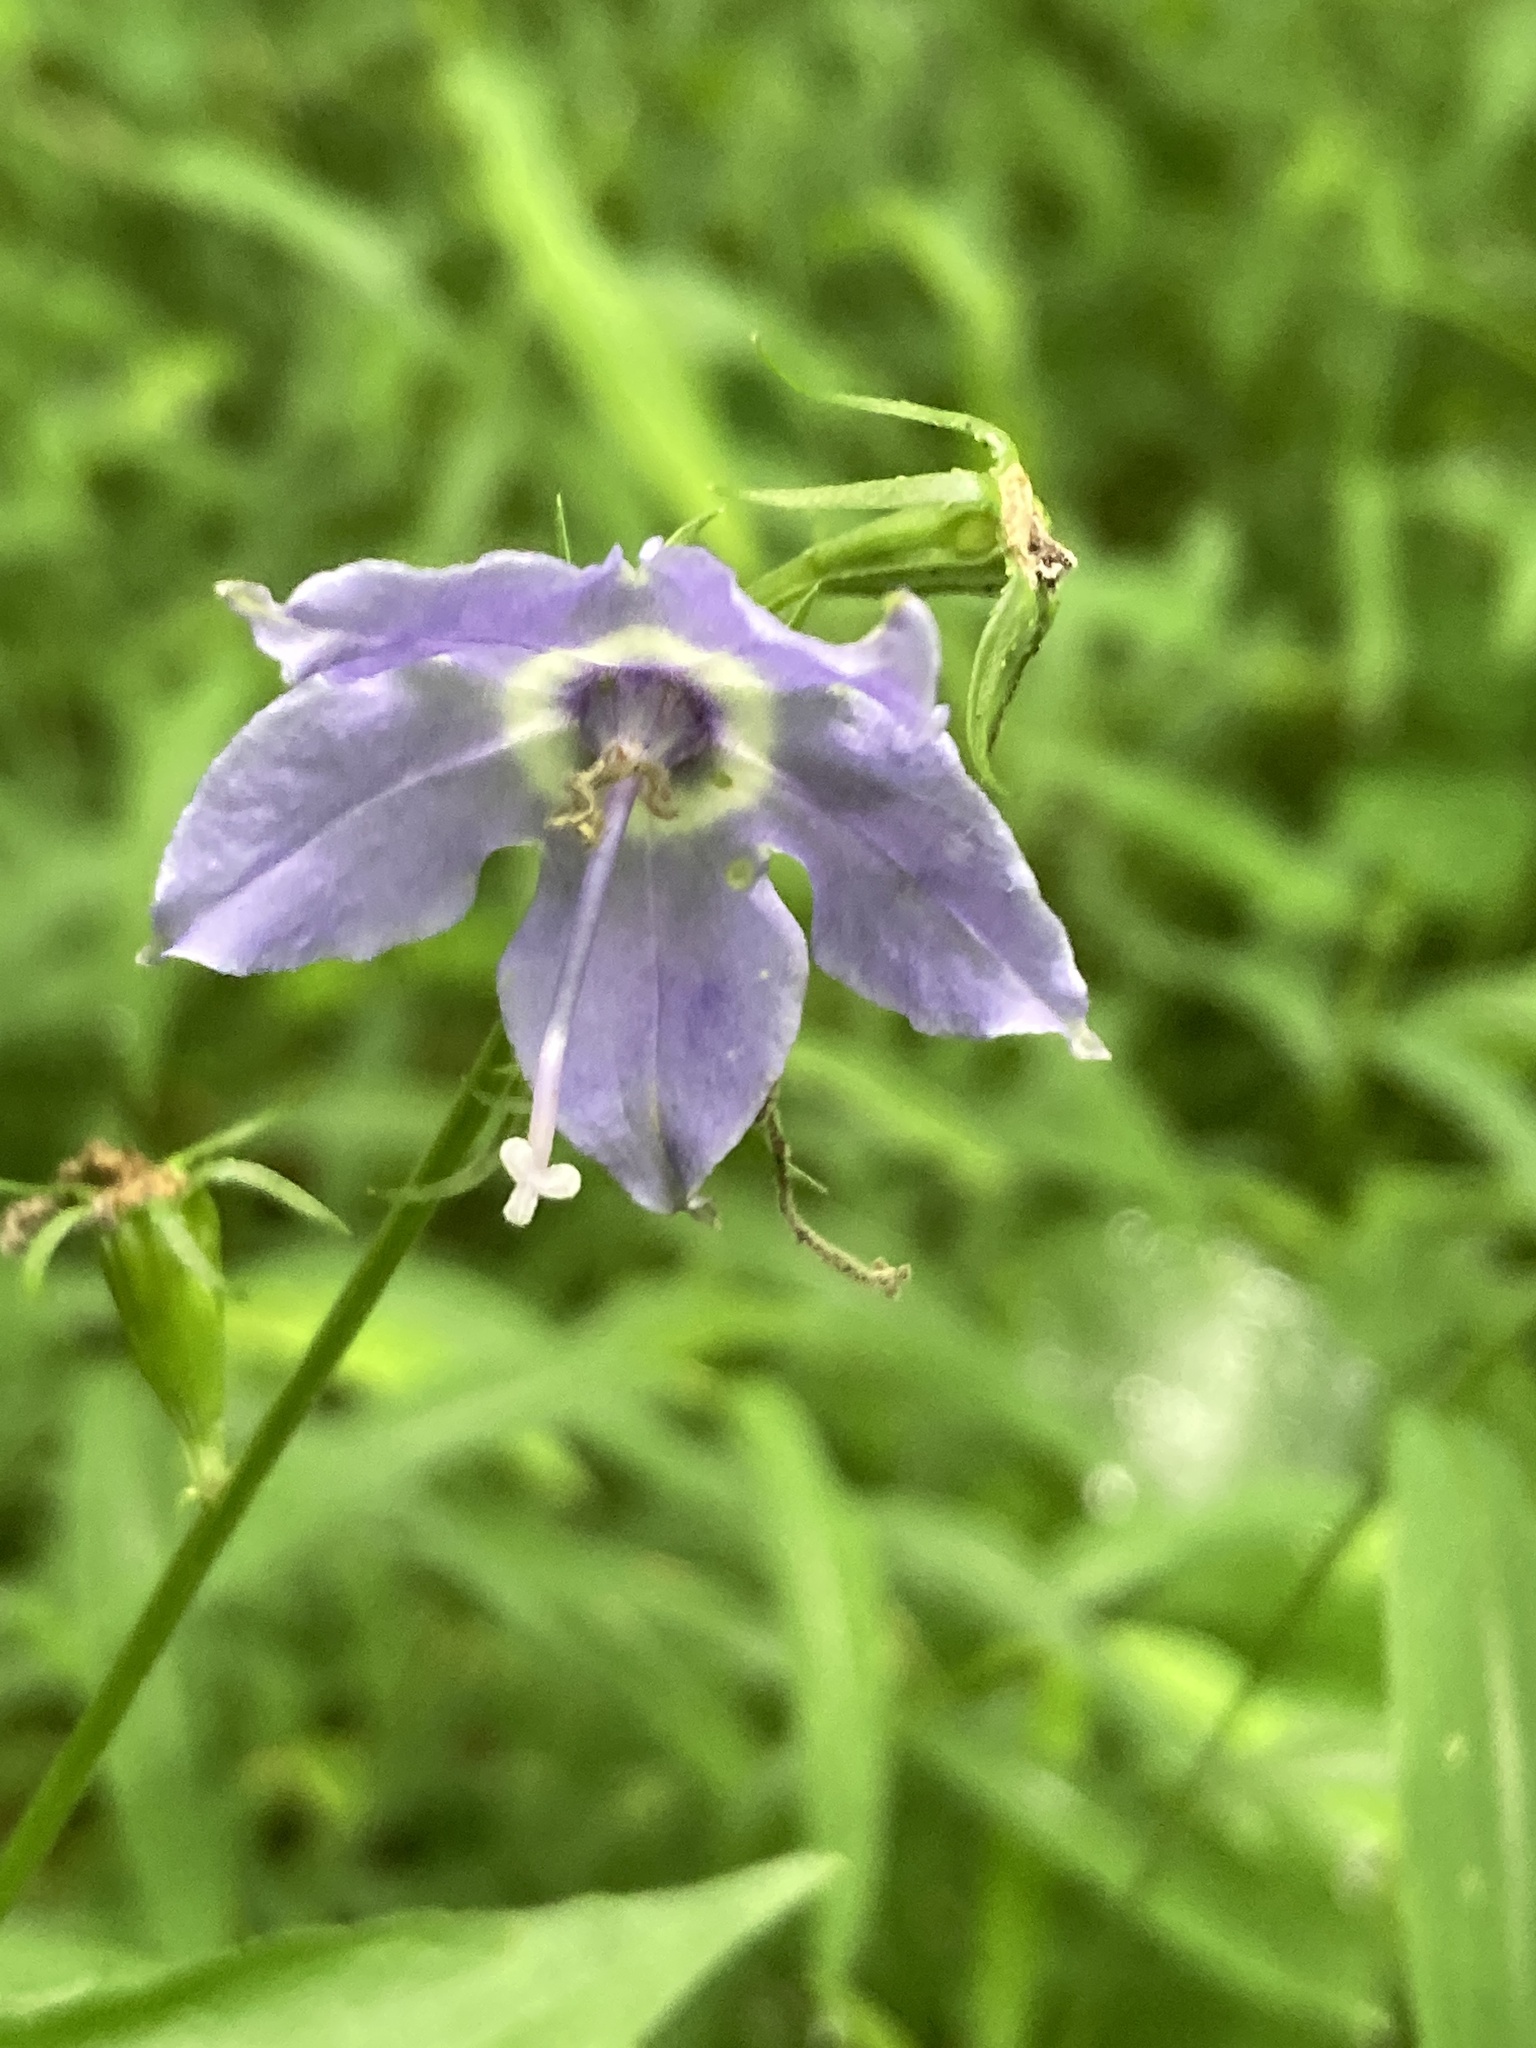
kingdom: Plantae
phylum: Tracheophyta
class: Magnoliopsida
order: Asterales
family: Campanulaceae
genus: Campanulastrum
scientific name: Campanulastrum americanum
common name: American bellflower
